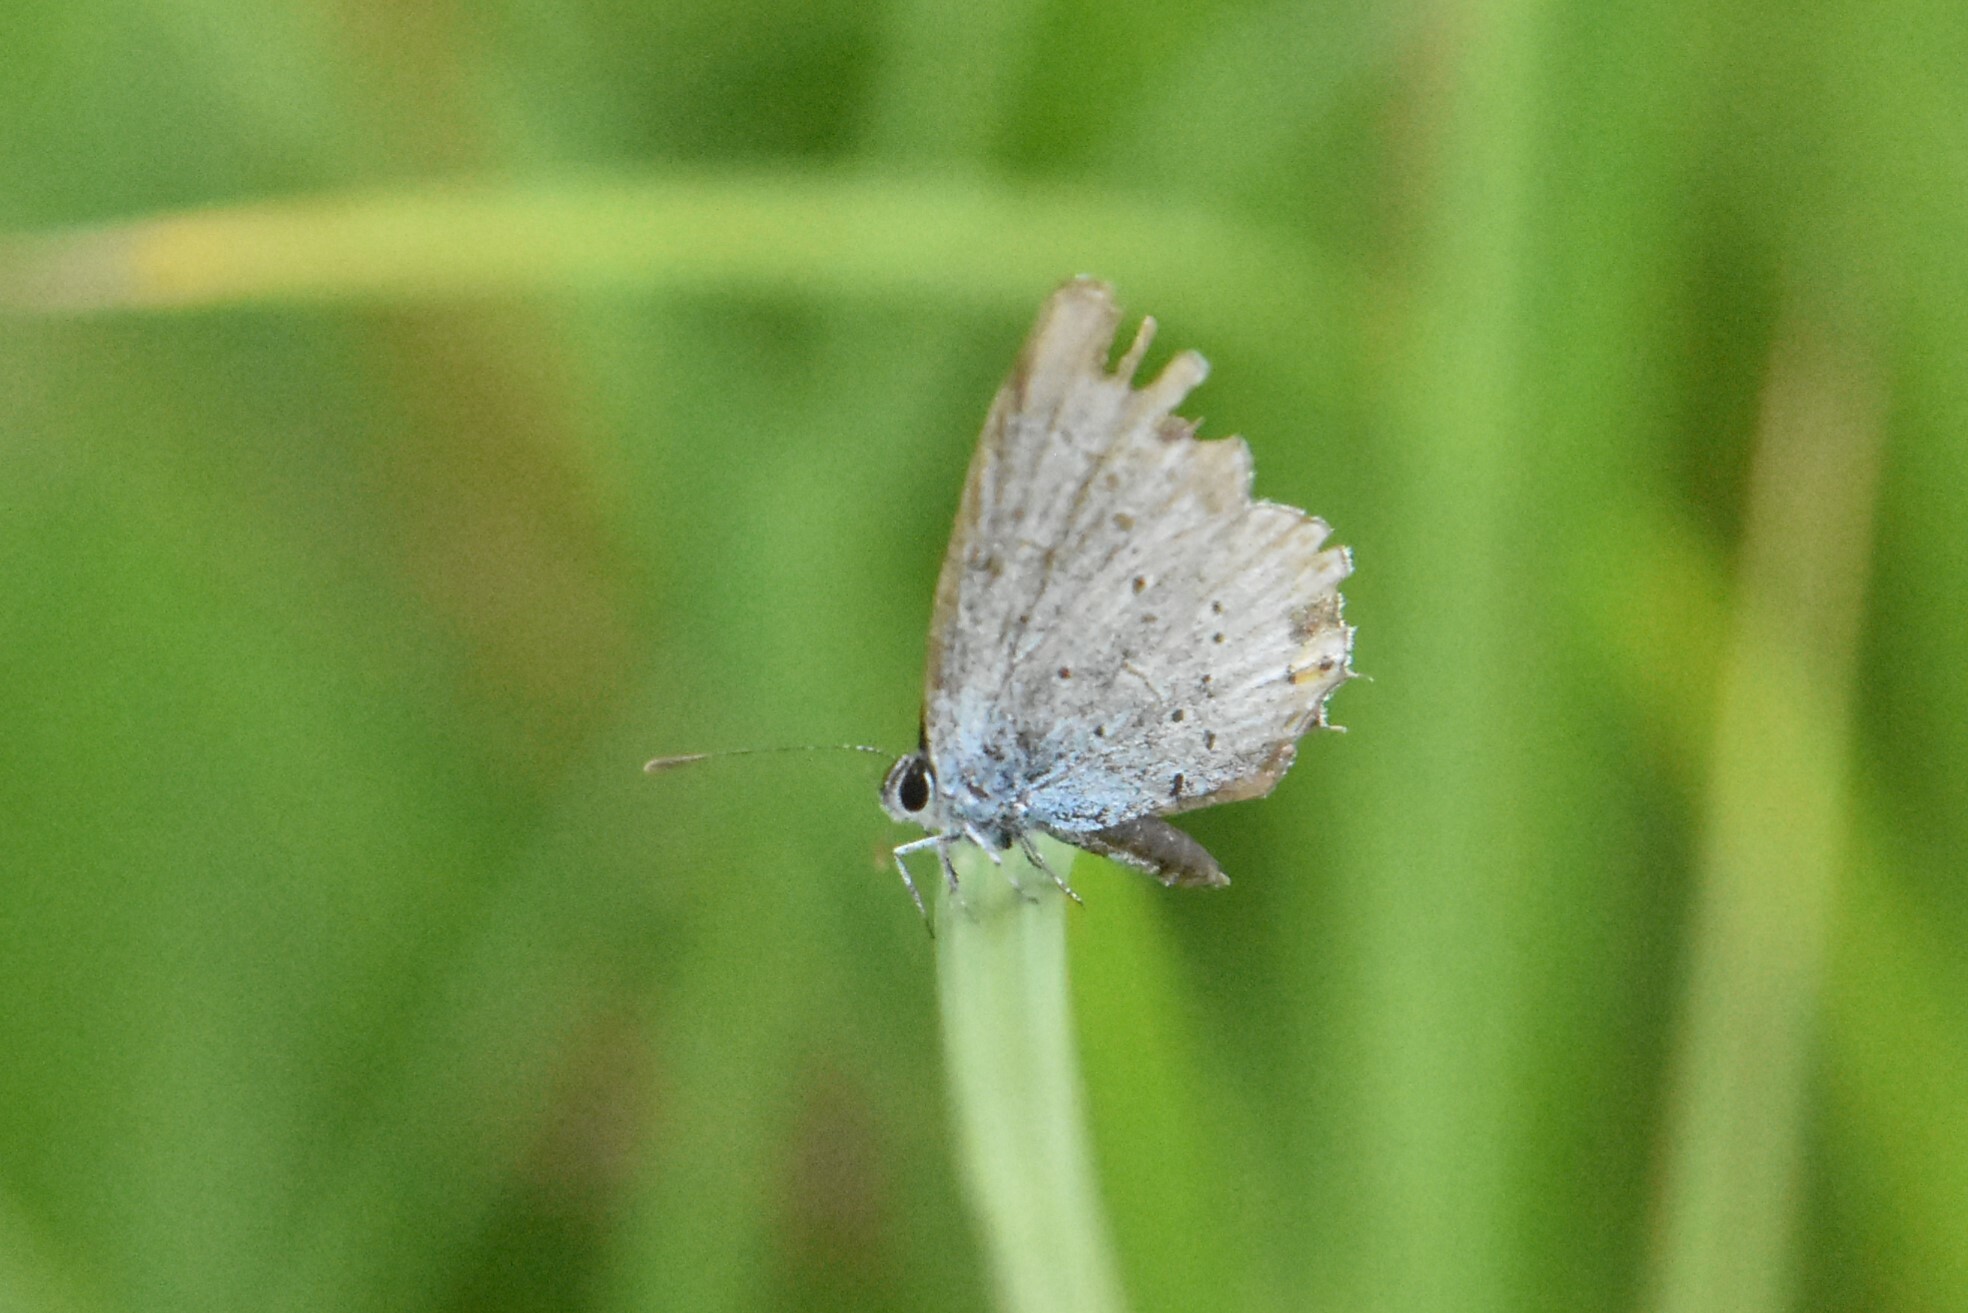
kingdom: Animalia
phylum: Arthropoda
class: Insecta
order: Lepidoptera
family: Lycaenidae
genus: Elkalyce
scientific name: Elkalyce argiades
